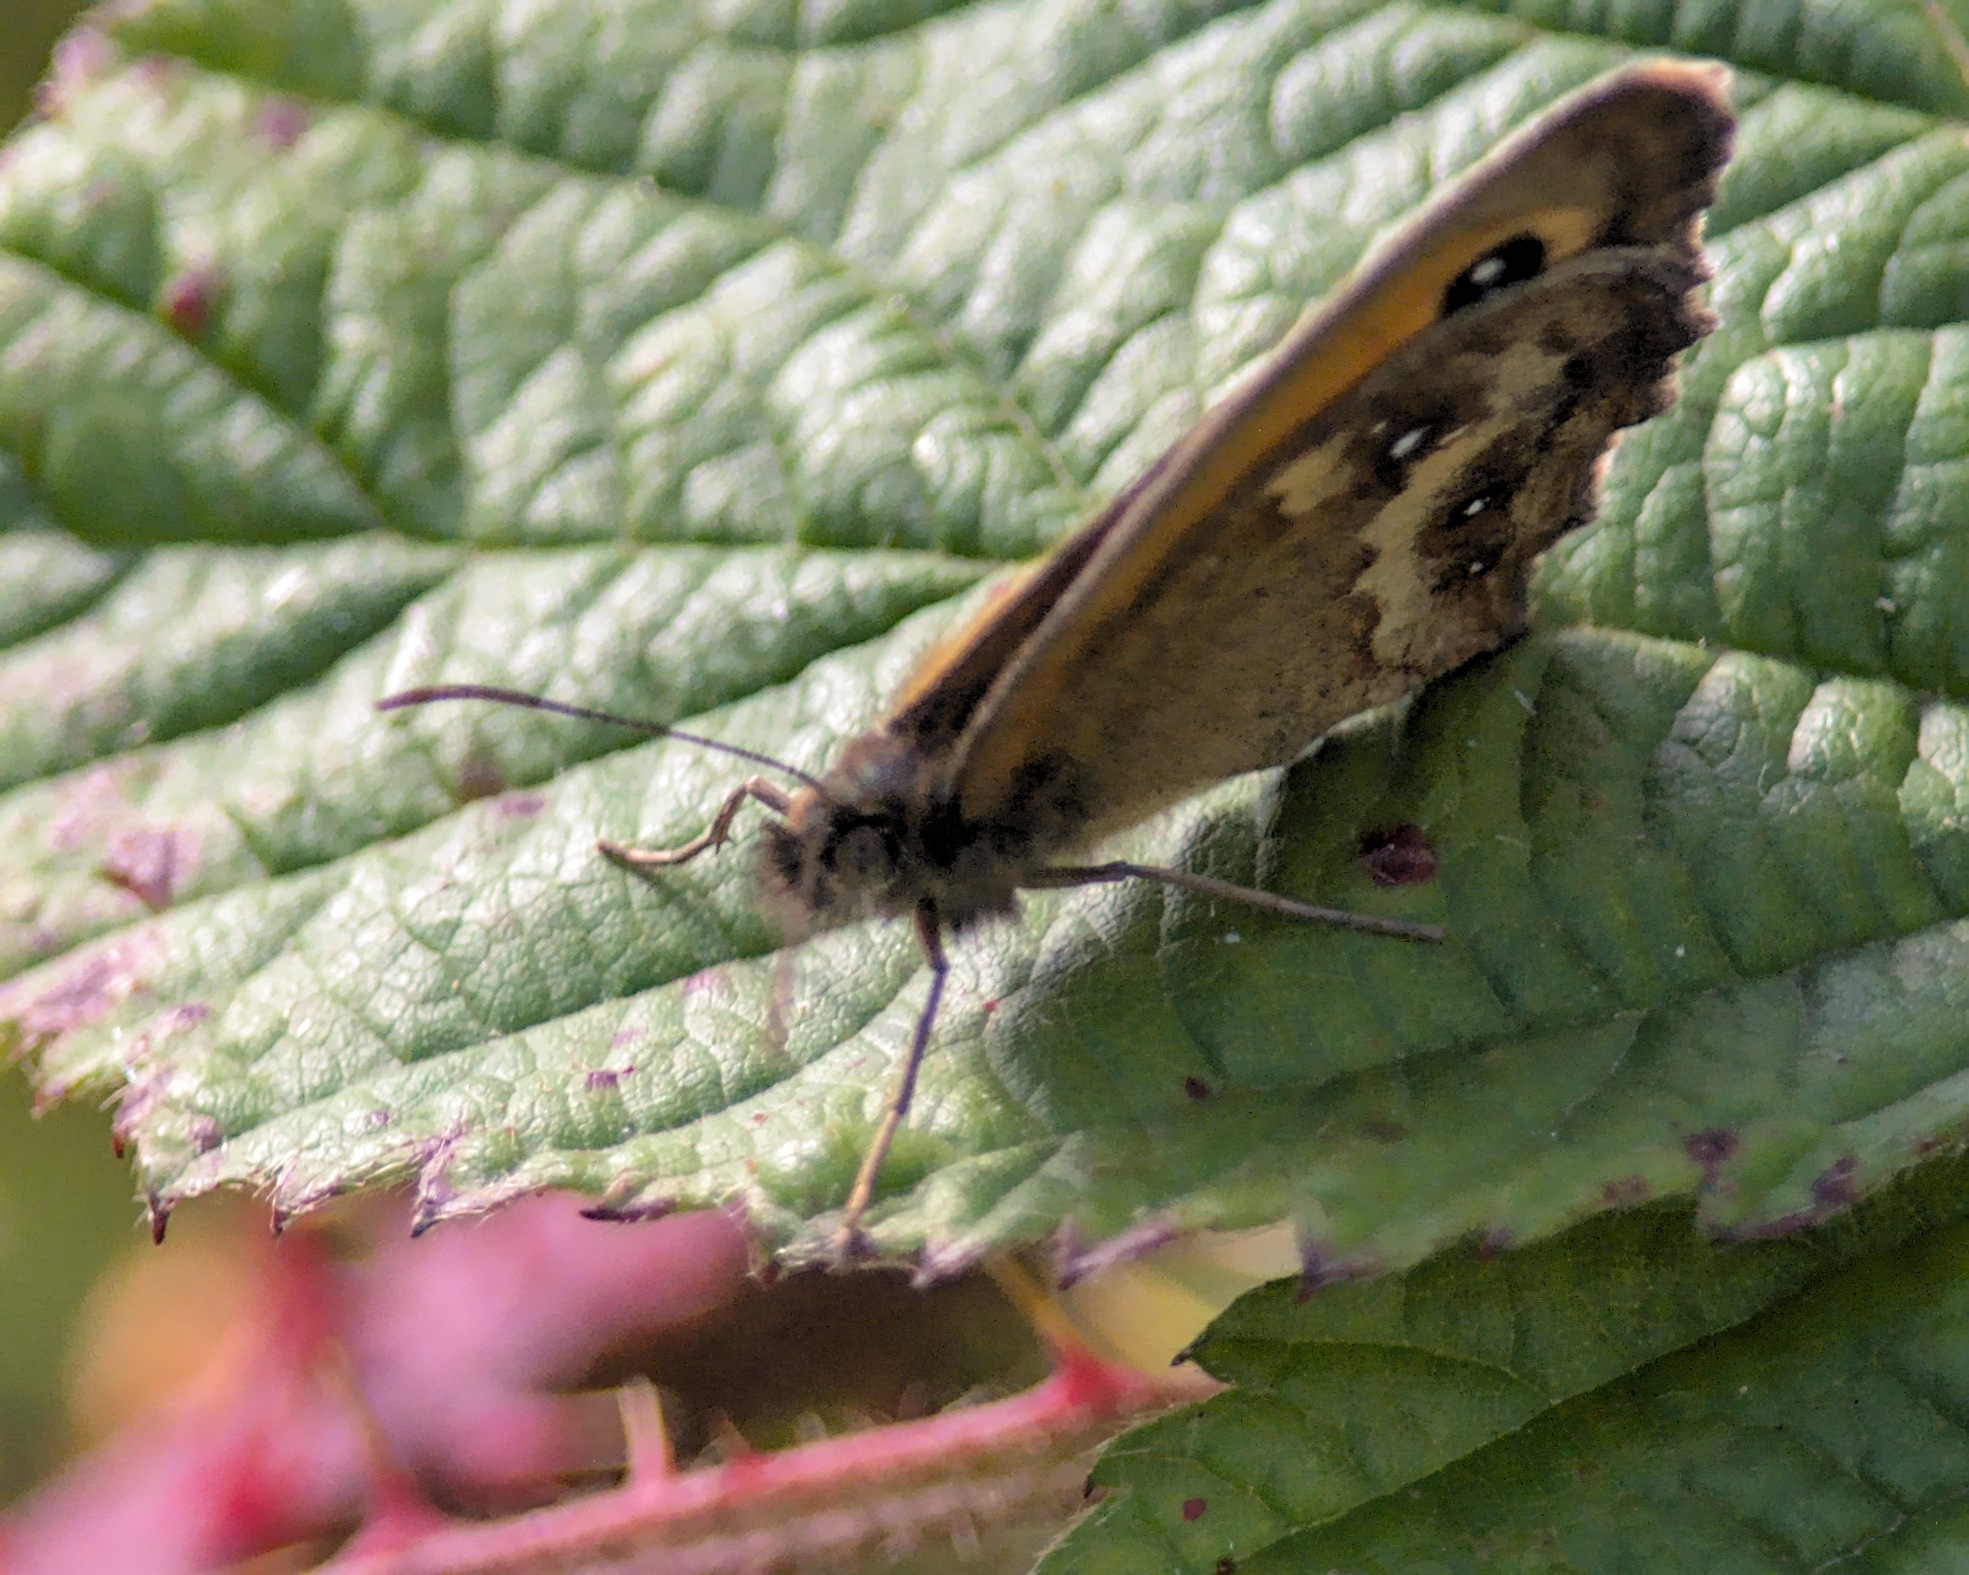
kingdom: Animalia
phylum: Arthropoda
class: Insecta
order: Lepidoptera
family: Nymphalidae
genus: Pyronia
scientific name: Pyronia tithonus
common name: Gatekeeper
